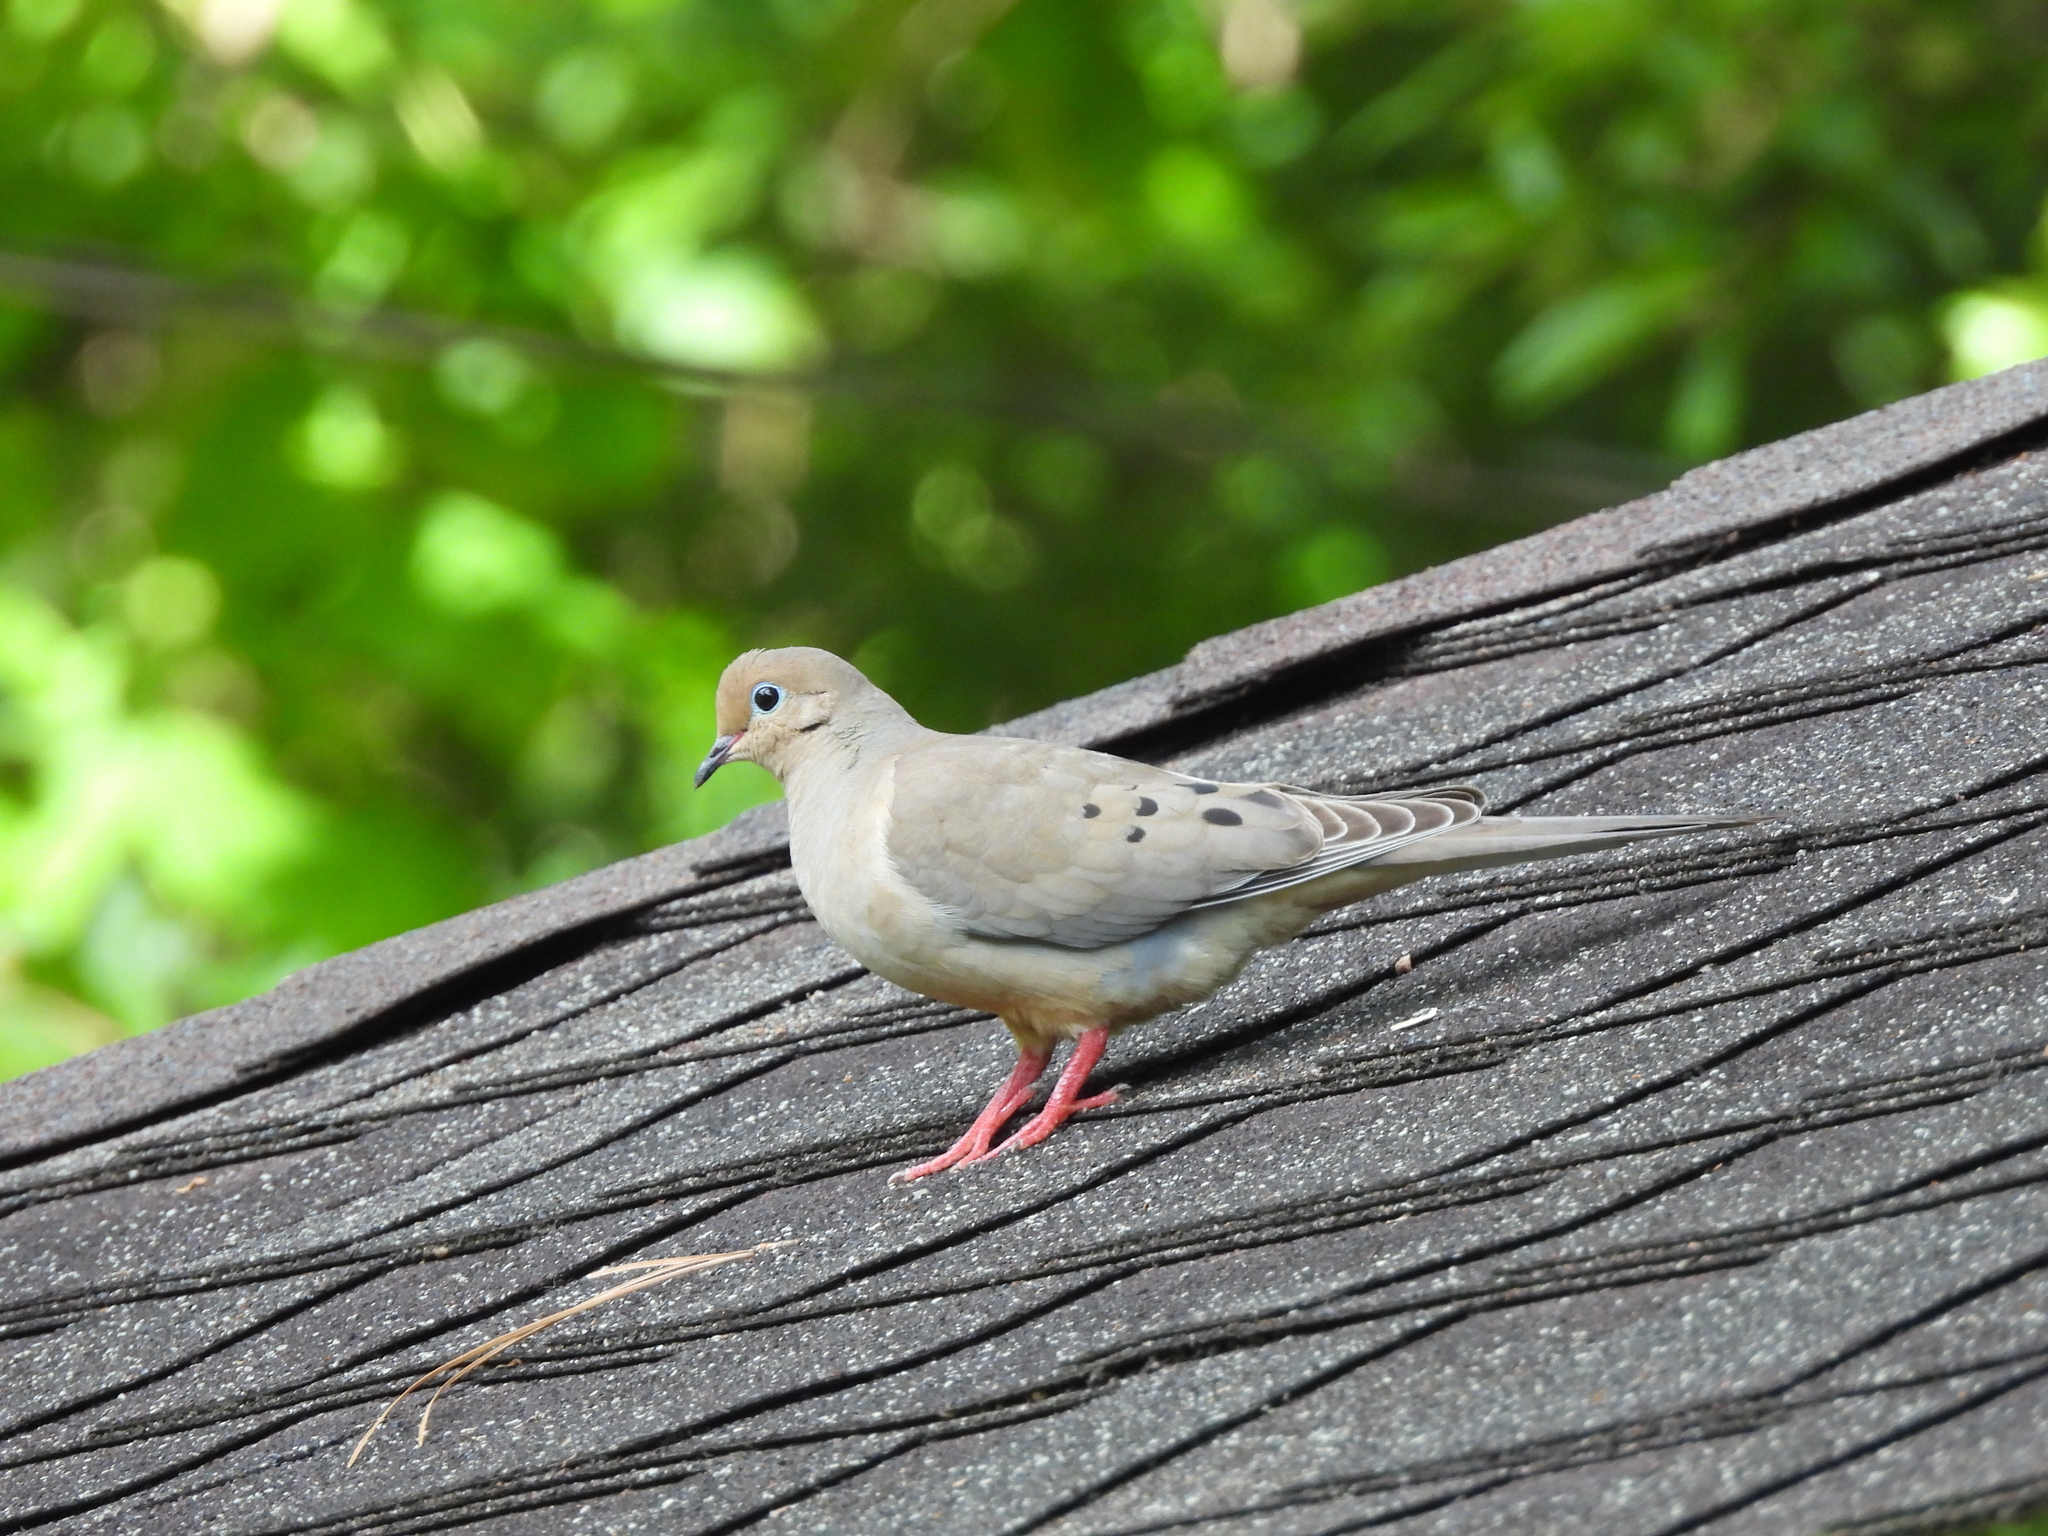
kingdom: Animalia
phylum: Chordata
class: Aves
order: Columbiformes
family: Columbidae
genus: Zenaida
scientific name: Zenaida macroura
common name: Mourning dove
